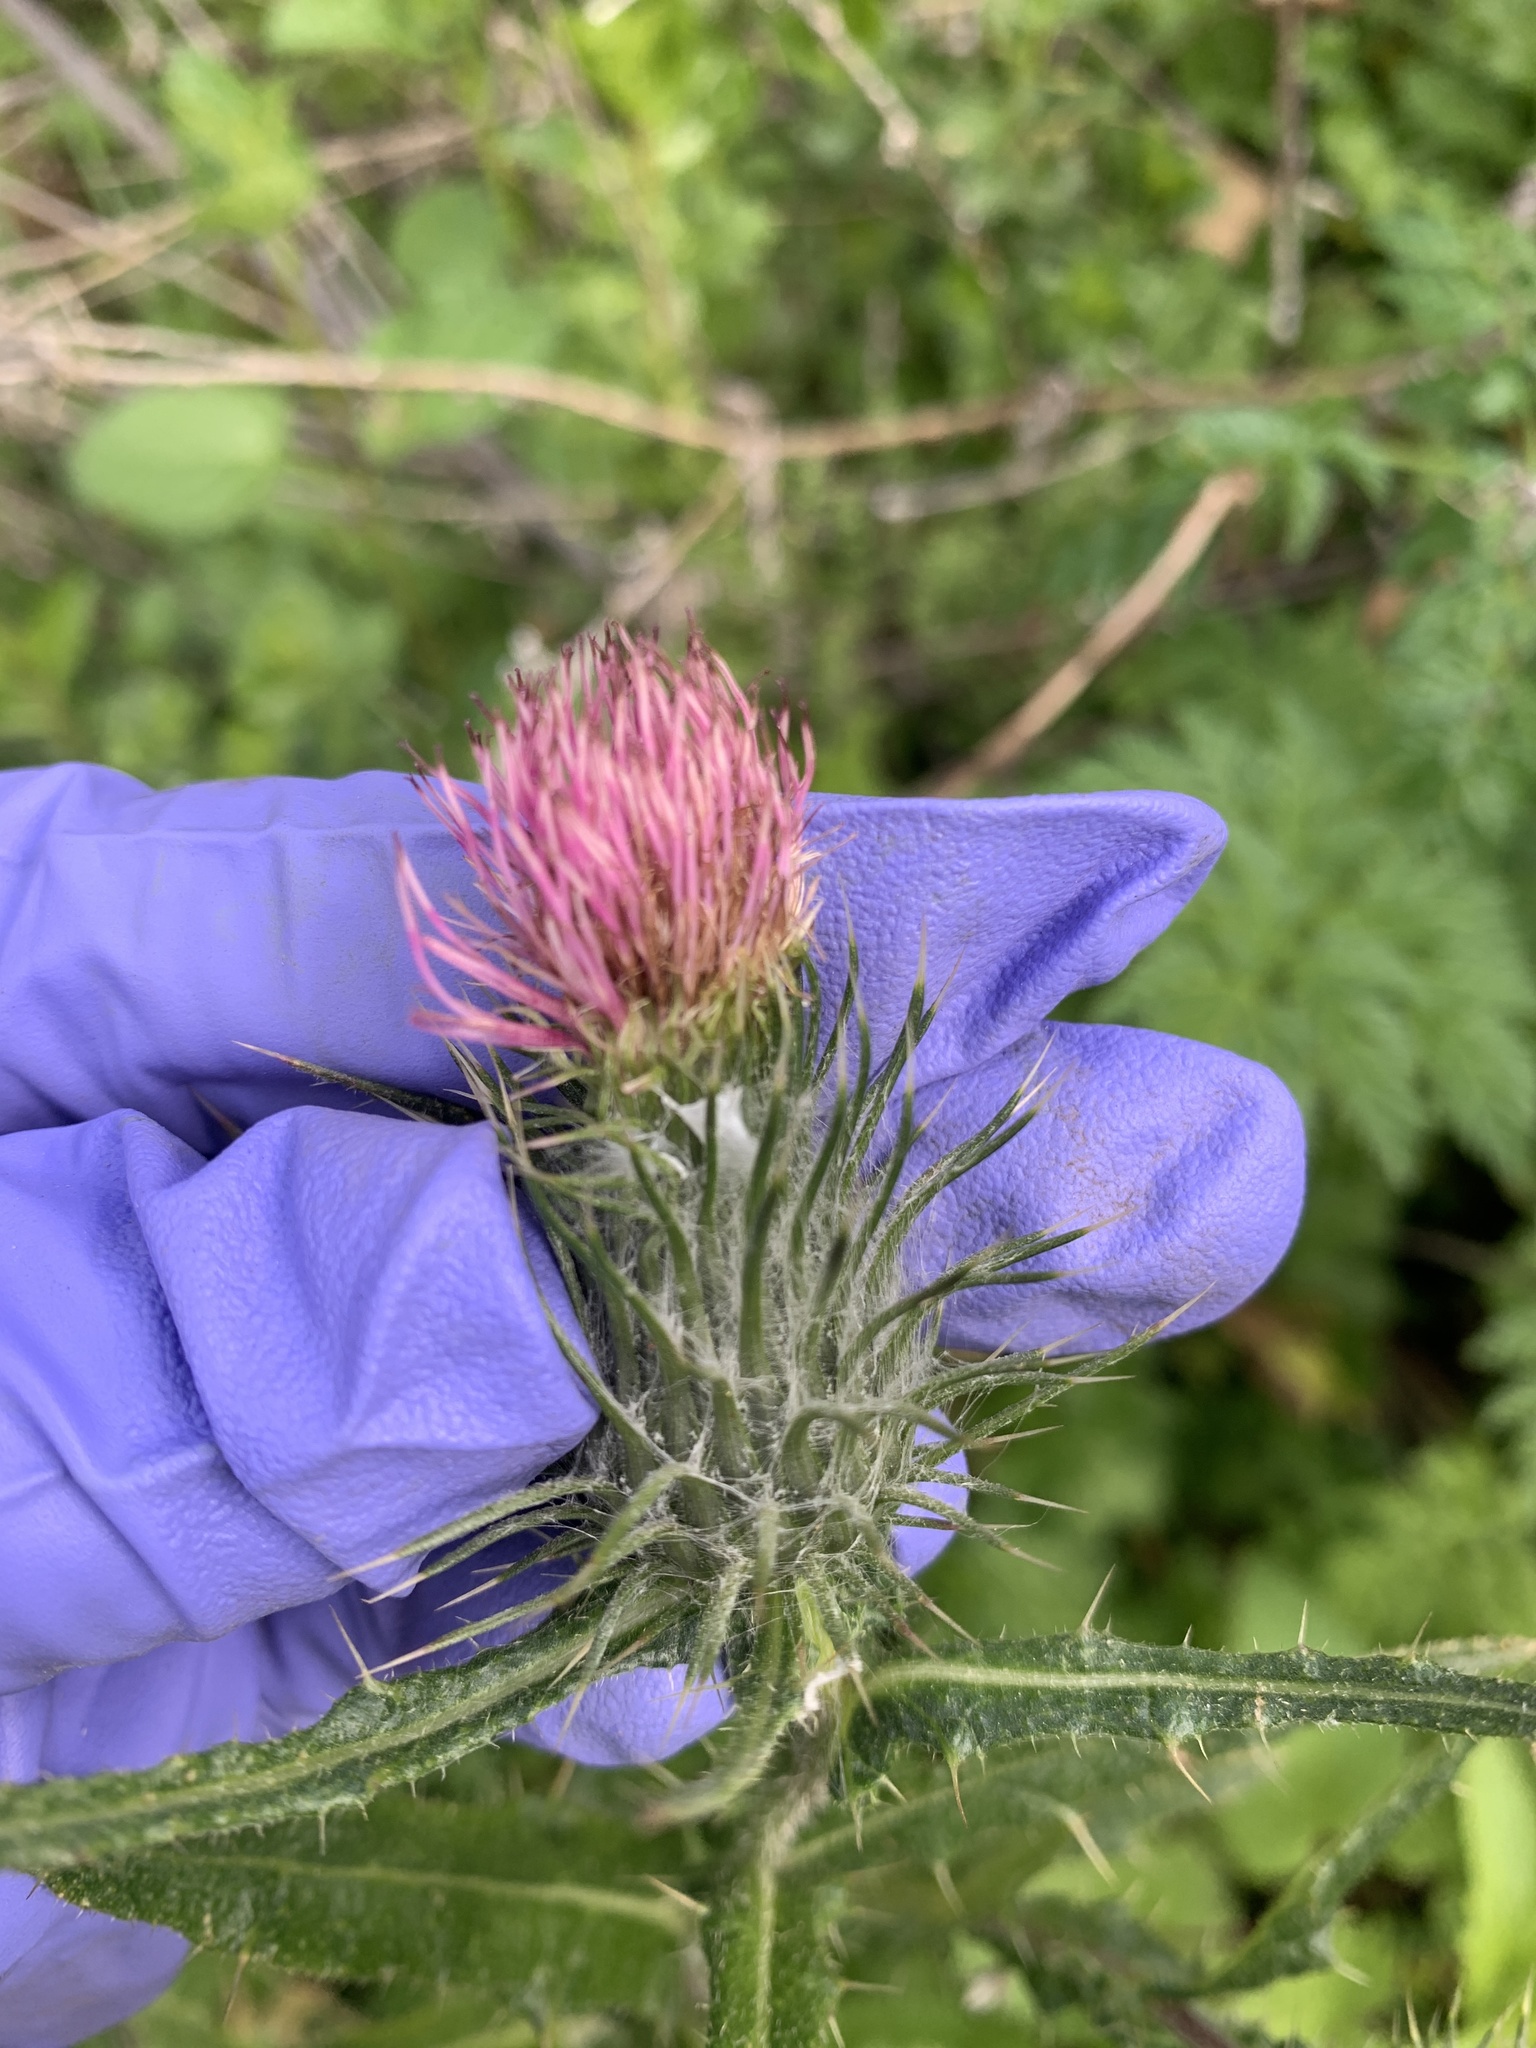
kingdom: Plantae
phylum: Tracheophyta
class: Magnoliopsida
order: Asterales
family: Asteraceae
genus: Cirsium
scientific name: Cirsium vulgare
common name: Bull thistle
